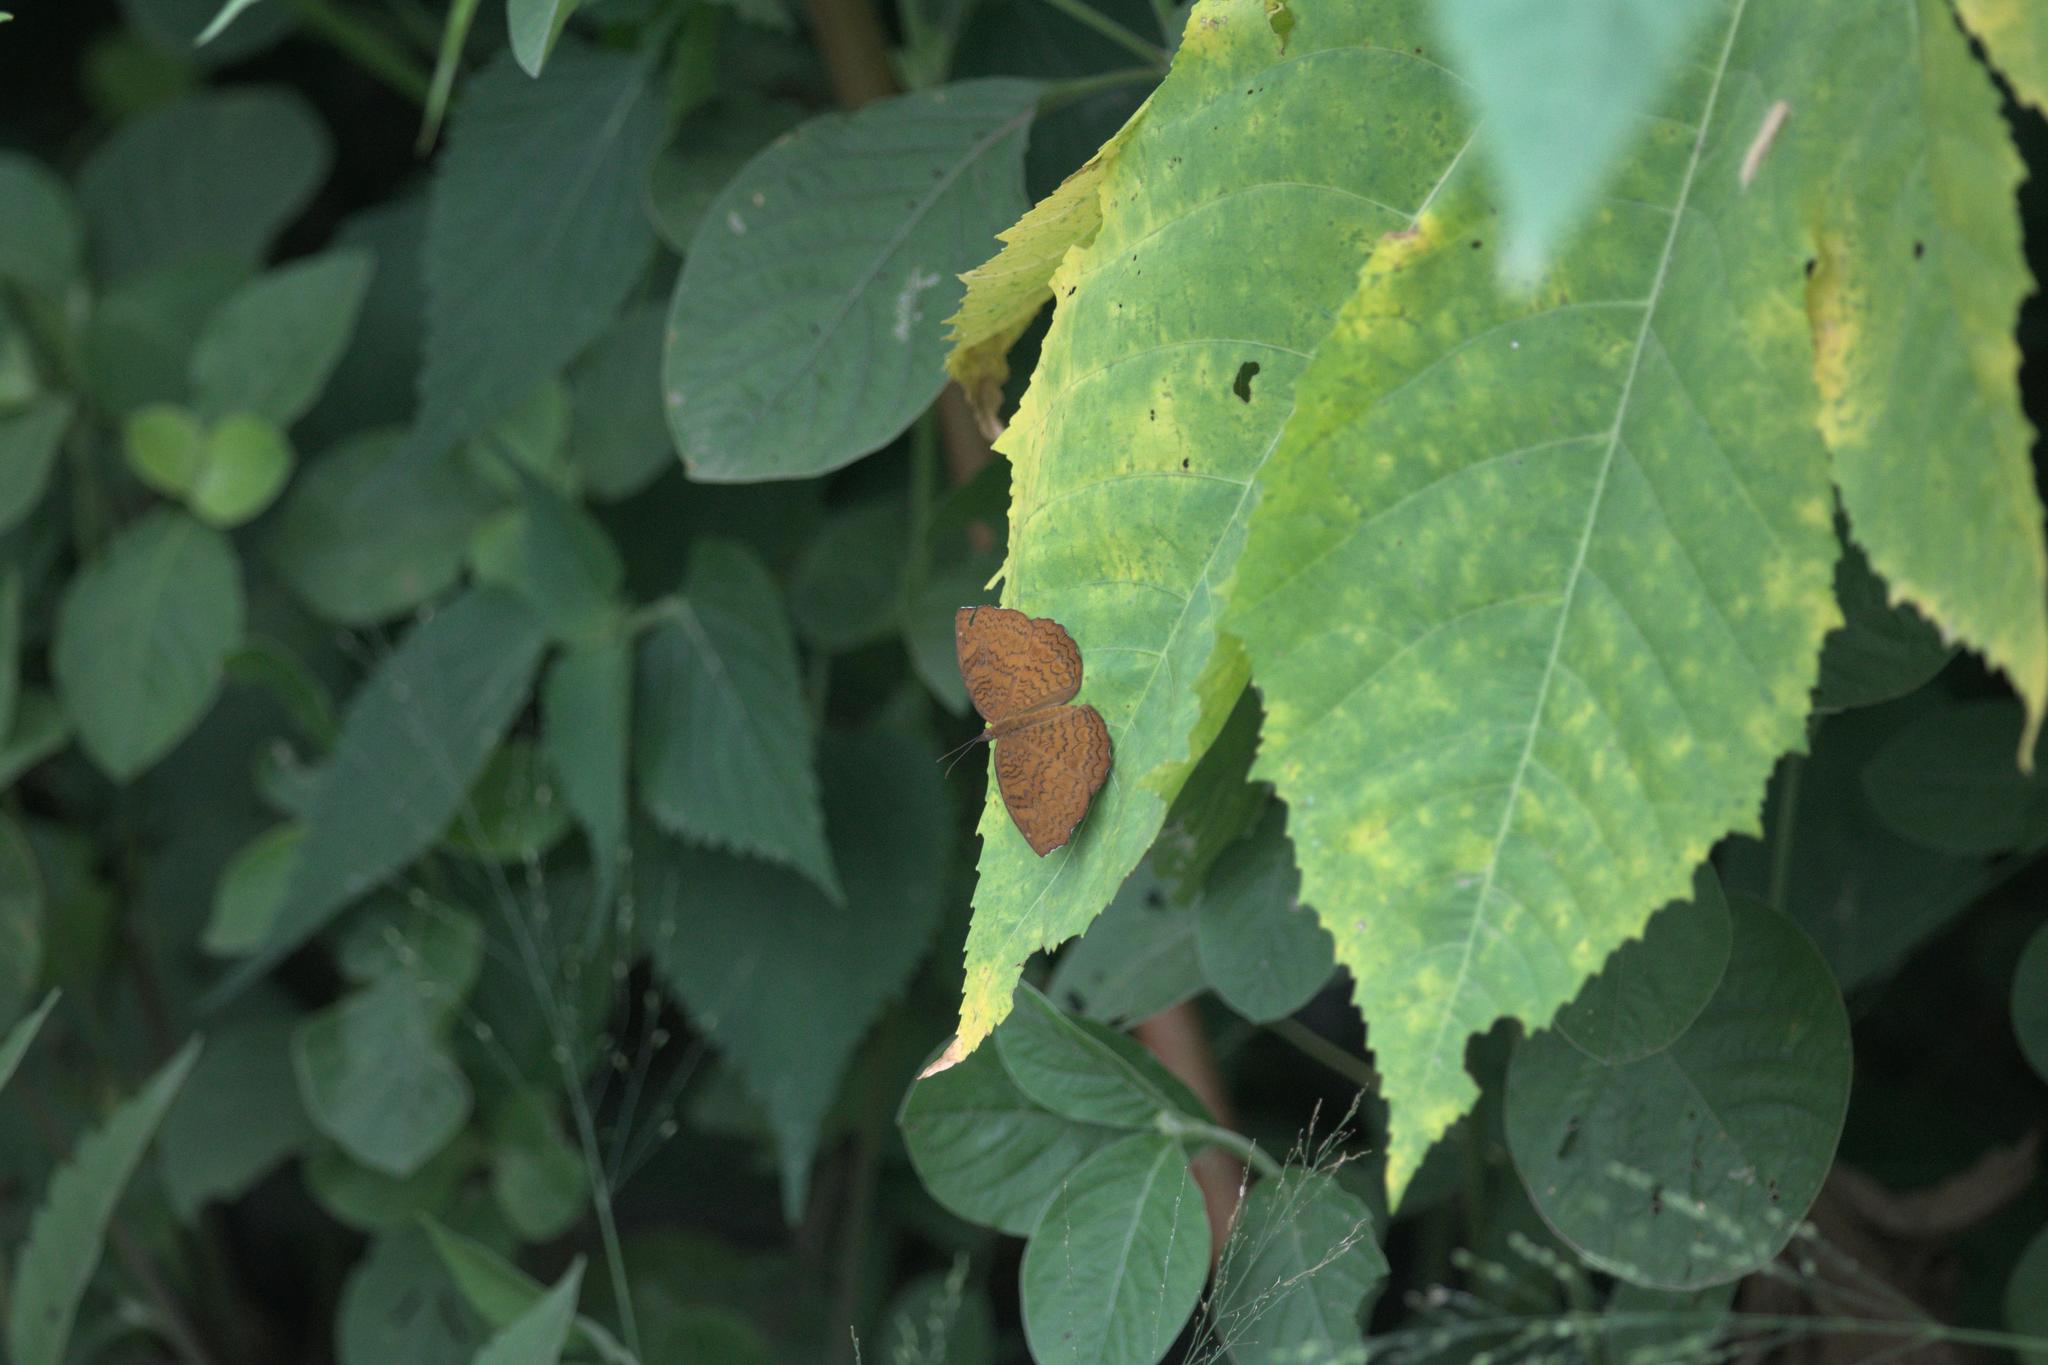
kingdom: Animalia
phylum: Arthropoda
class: Insecta
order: Lepidoptera
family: Nymphalidae
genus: Ariadne
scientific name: Ariadne merione
